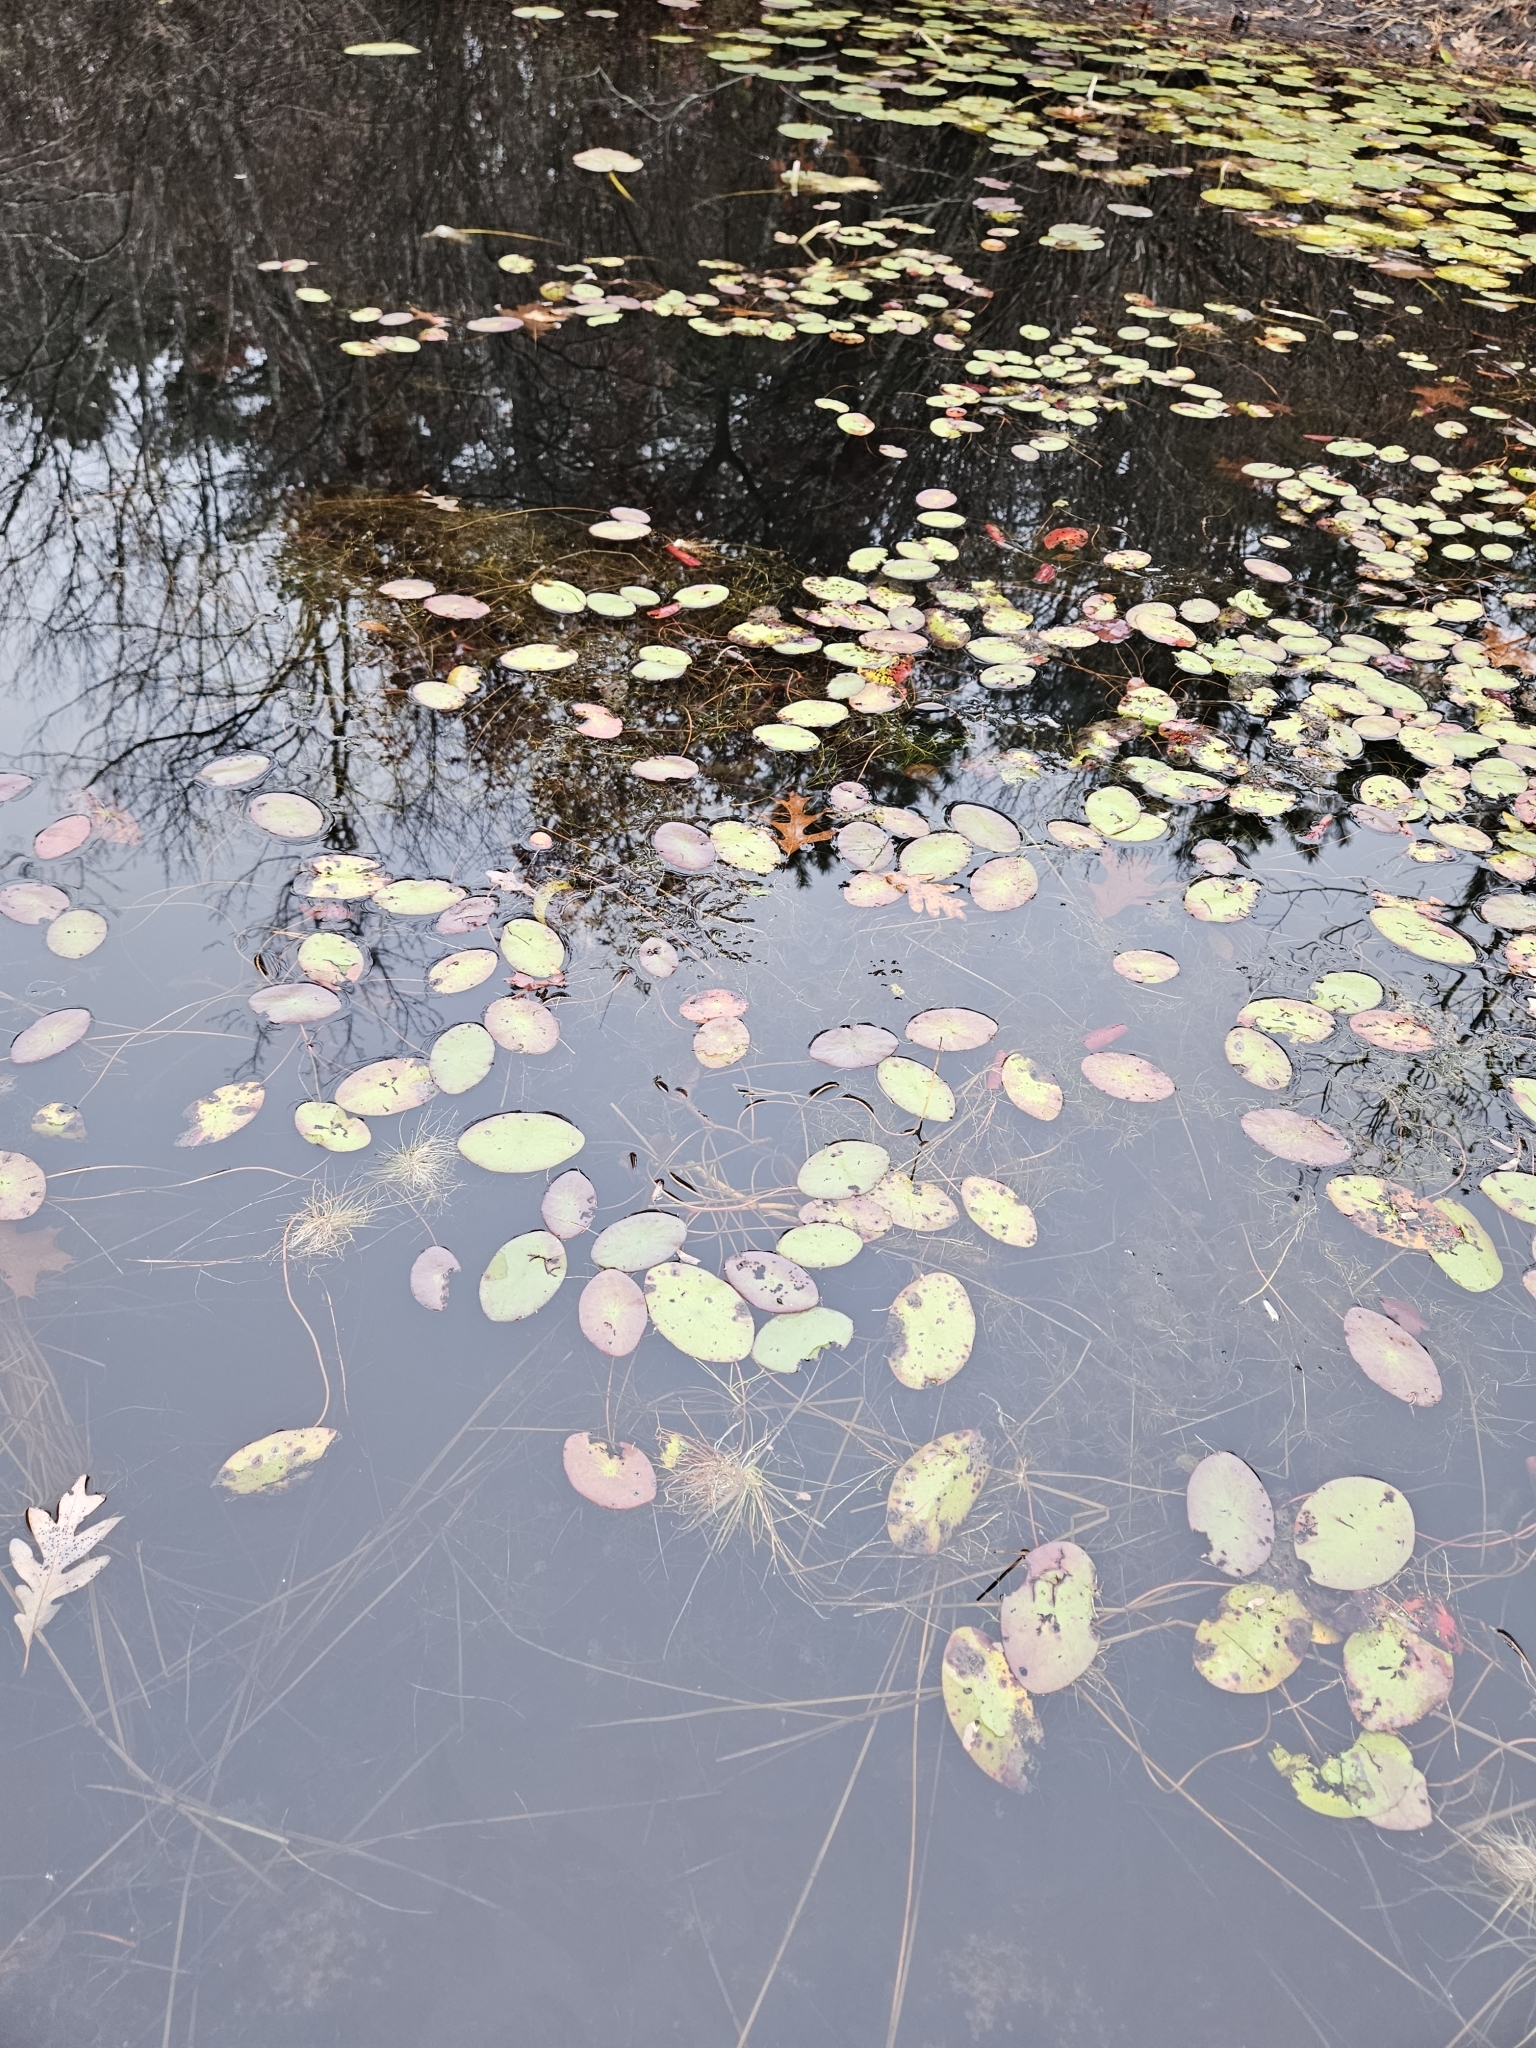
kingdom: Plantae
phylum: Tracheophyta
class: Magnoliopsida
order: Nymphaeales
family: Cabombaceae
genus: Brasenia
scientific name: Brasenia schreberi
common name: Water-shield
